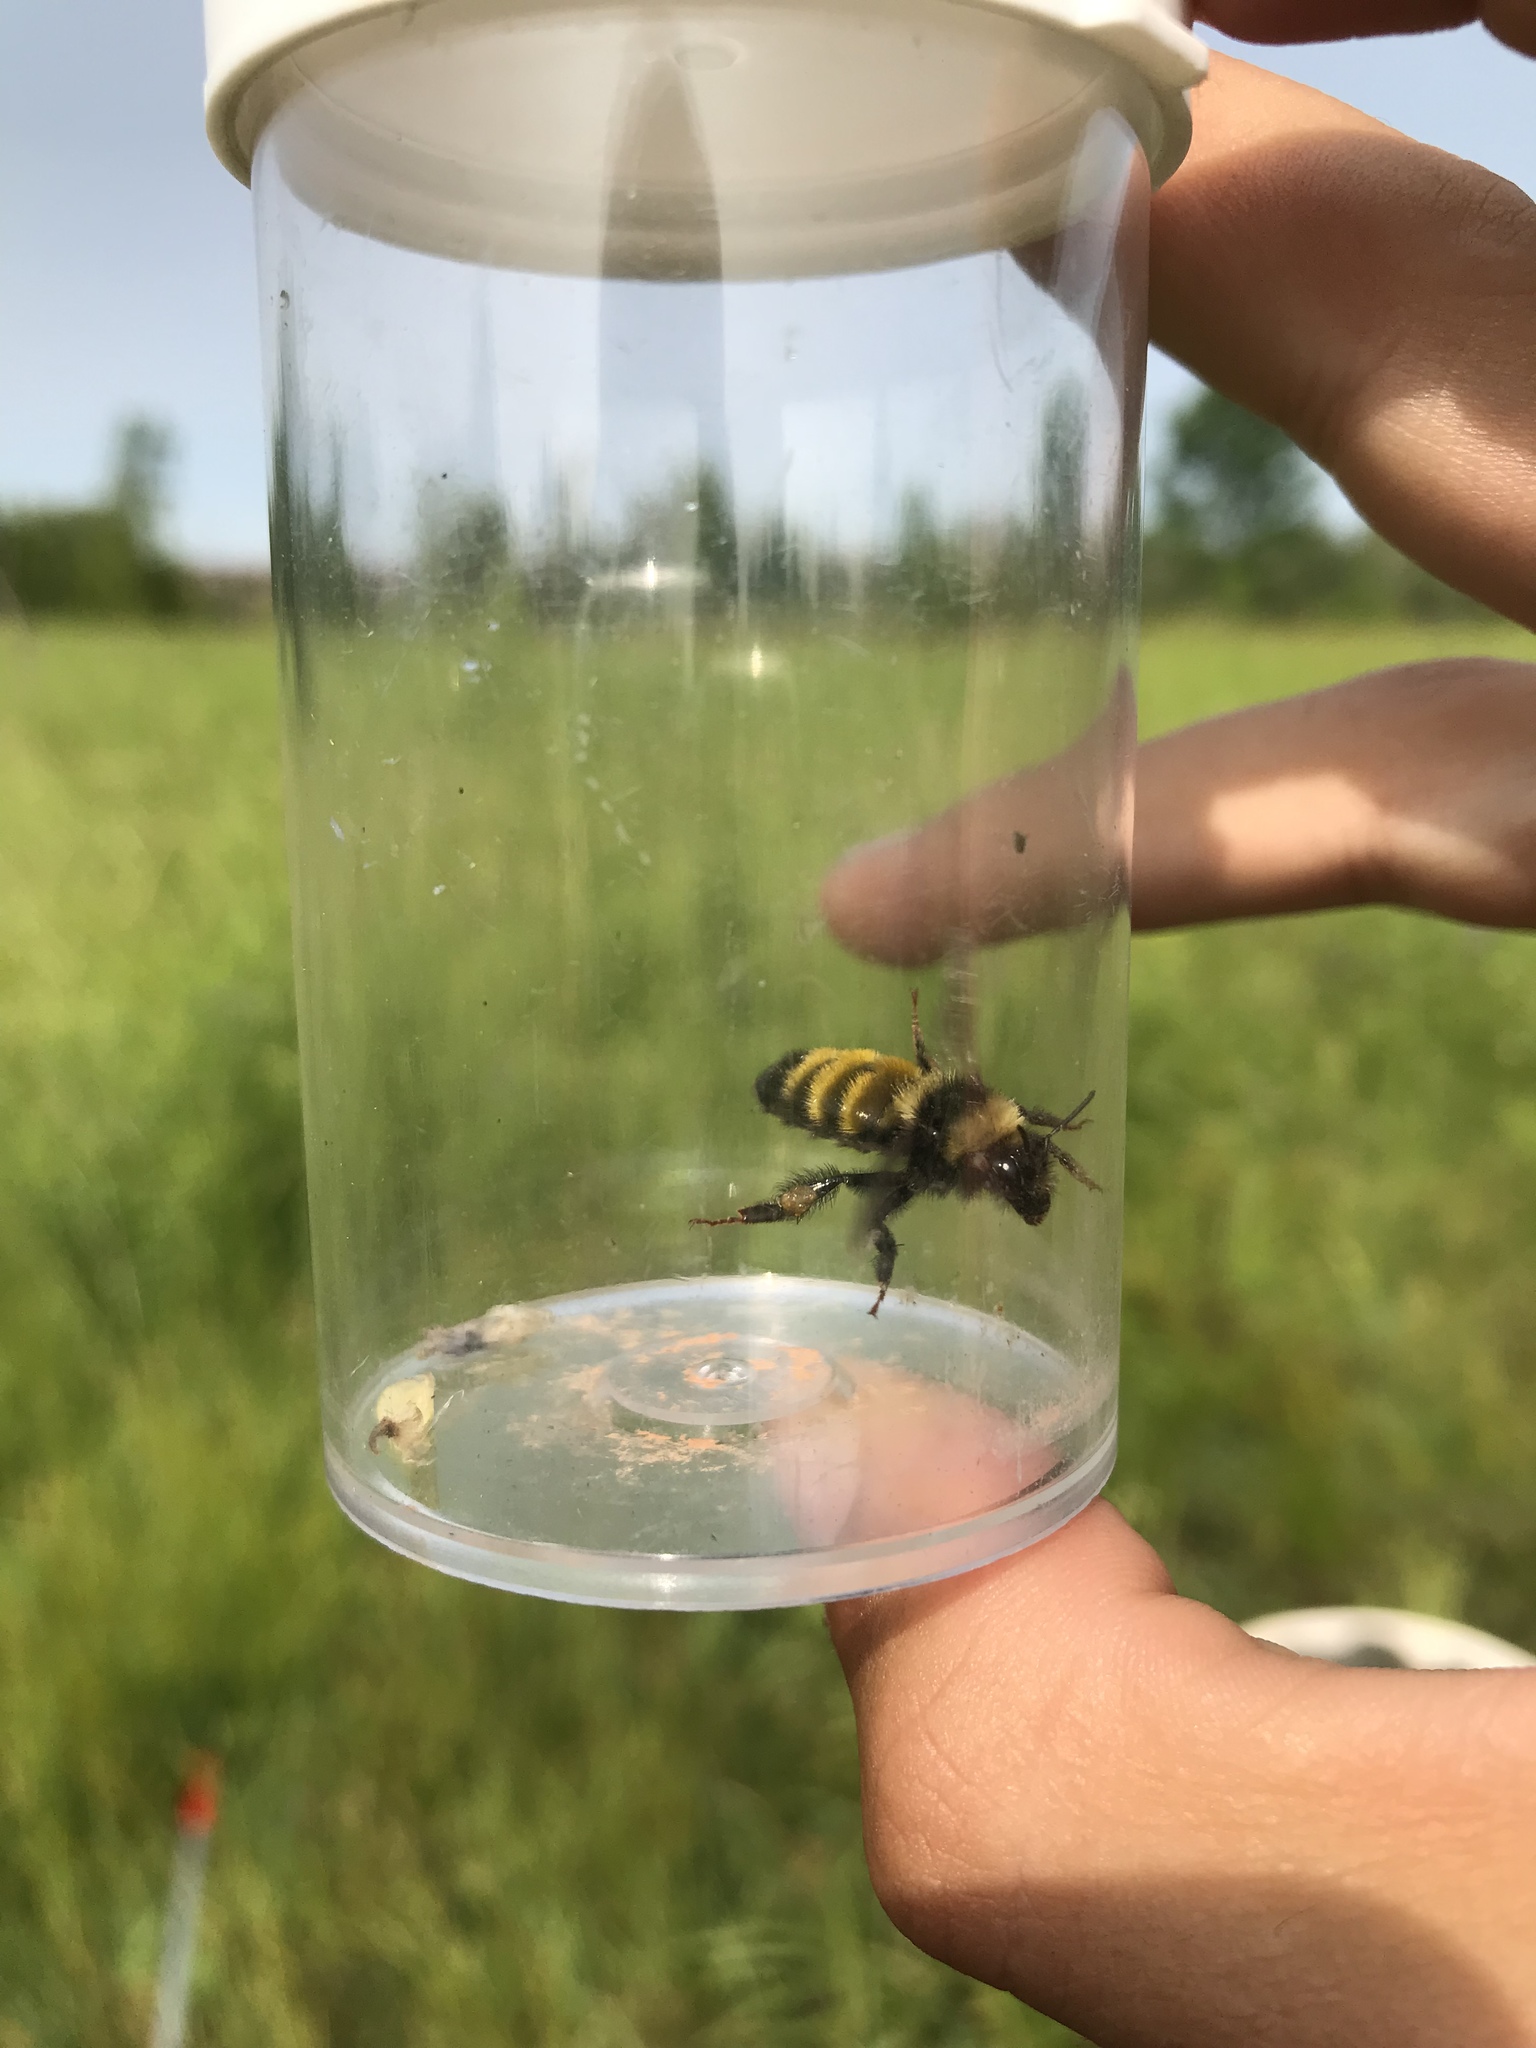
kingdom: Animalia
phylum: Arthropoda
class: Insecta
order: Hymenoptera
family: Apidae
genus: Bombus
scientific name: Bombus borealis
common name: Northern amber bumble bee
